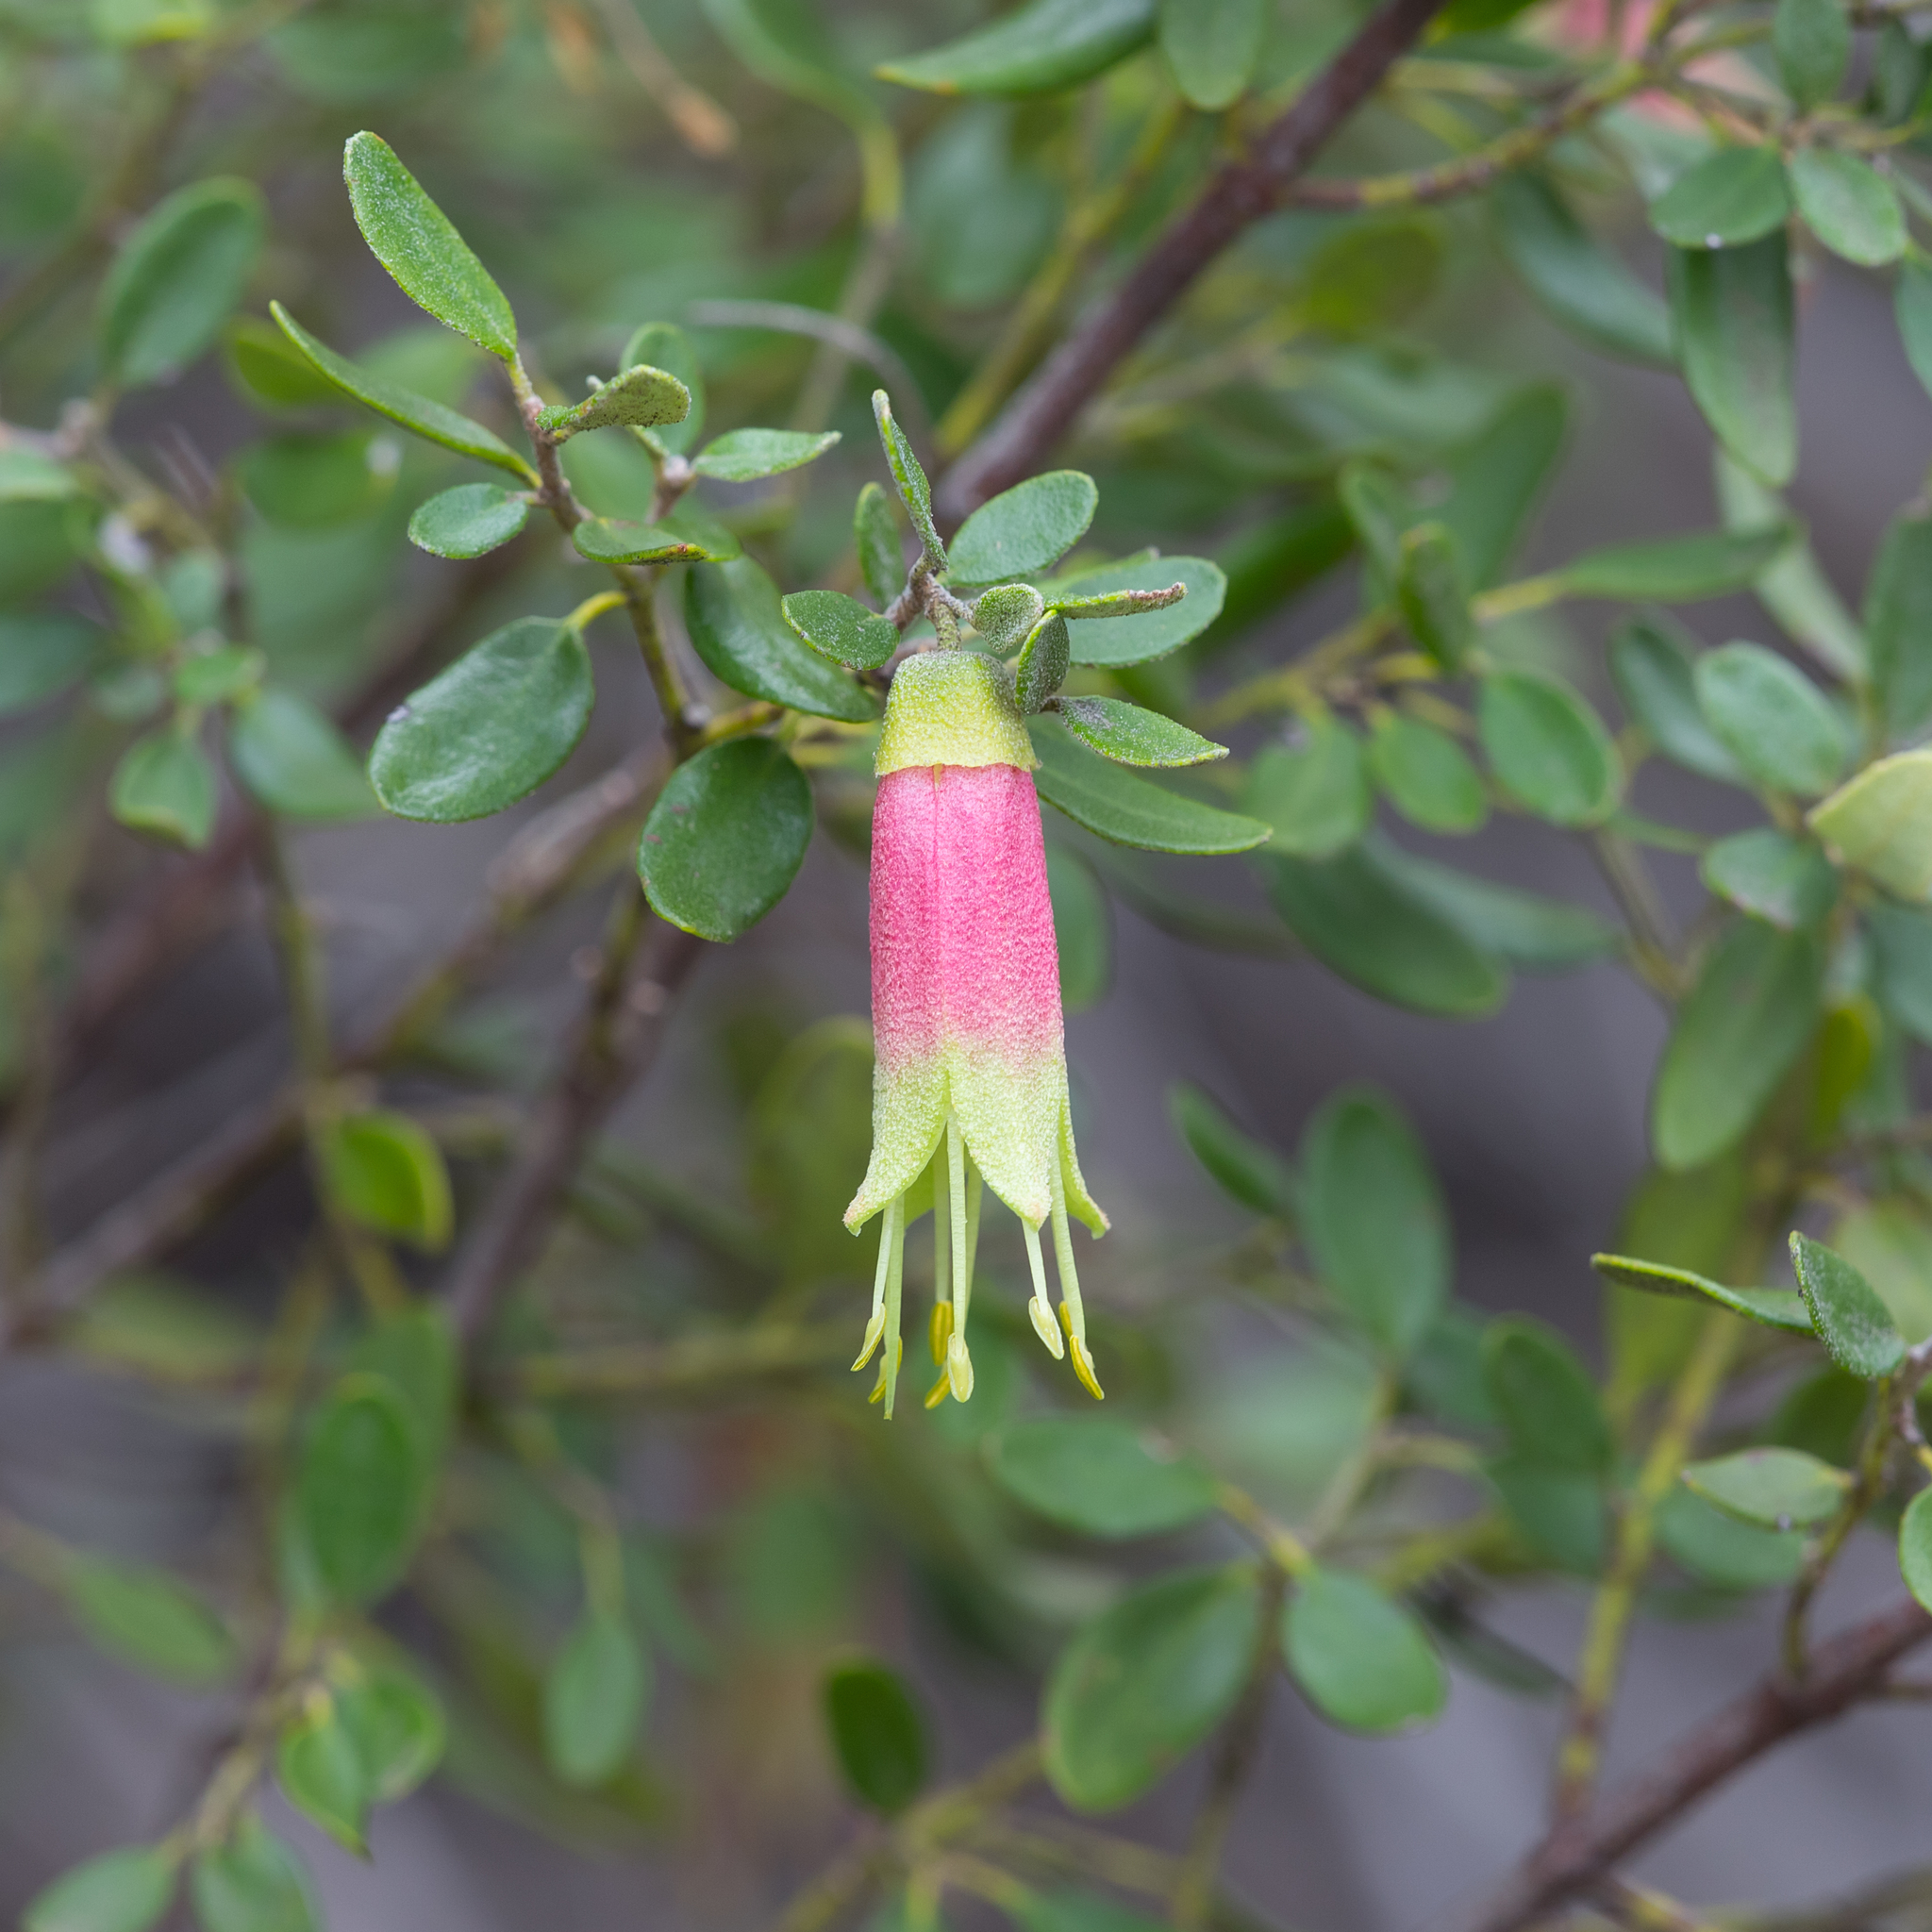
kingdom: Plantae
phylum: Tracheophyta
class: Magnoliopsida
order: Sapindales
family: Rutaceae
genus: Correa
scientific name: Correa glabra
